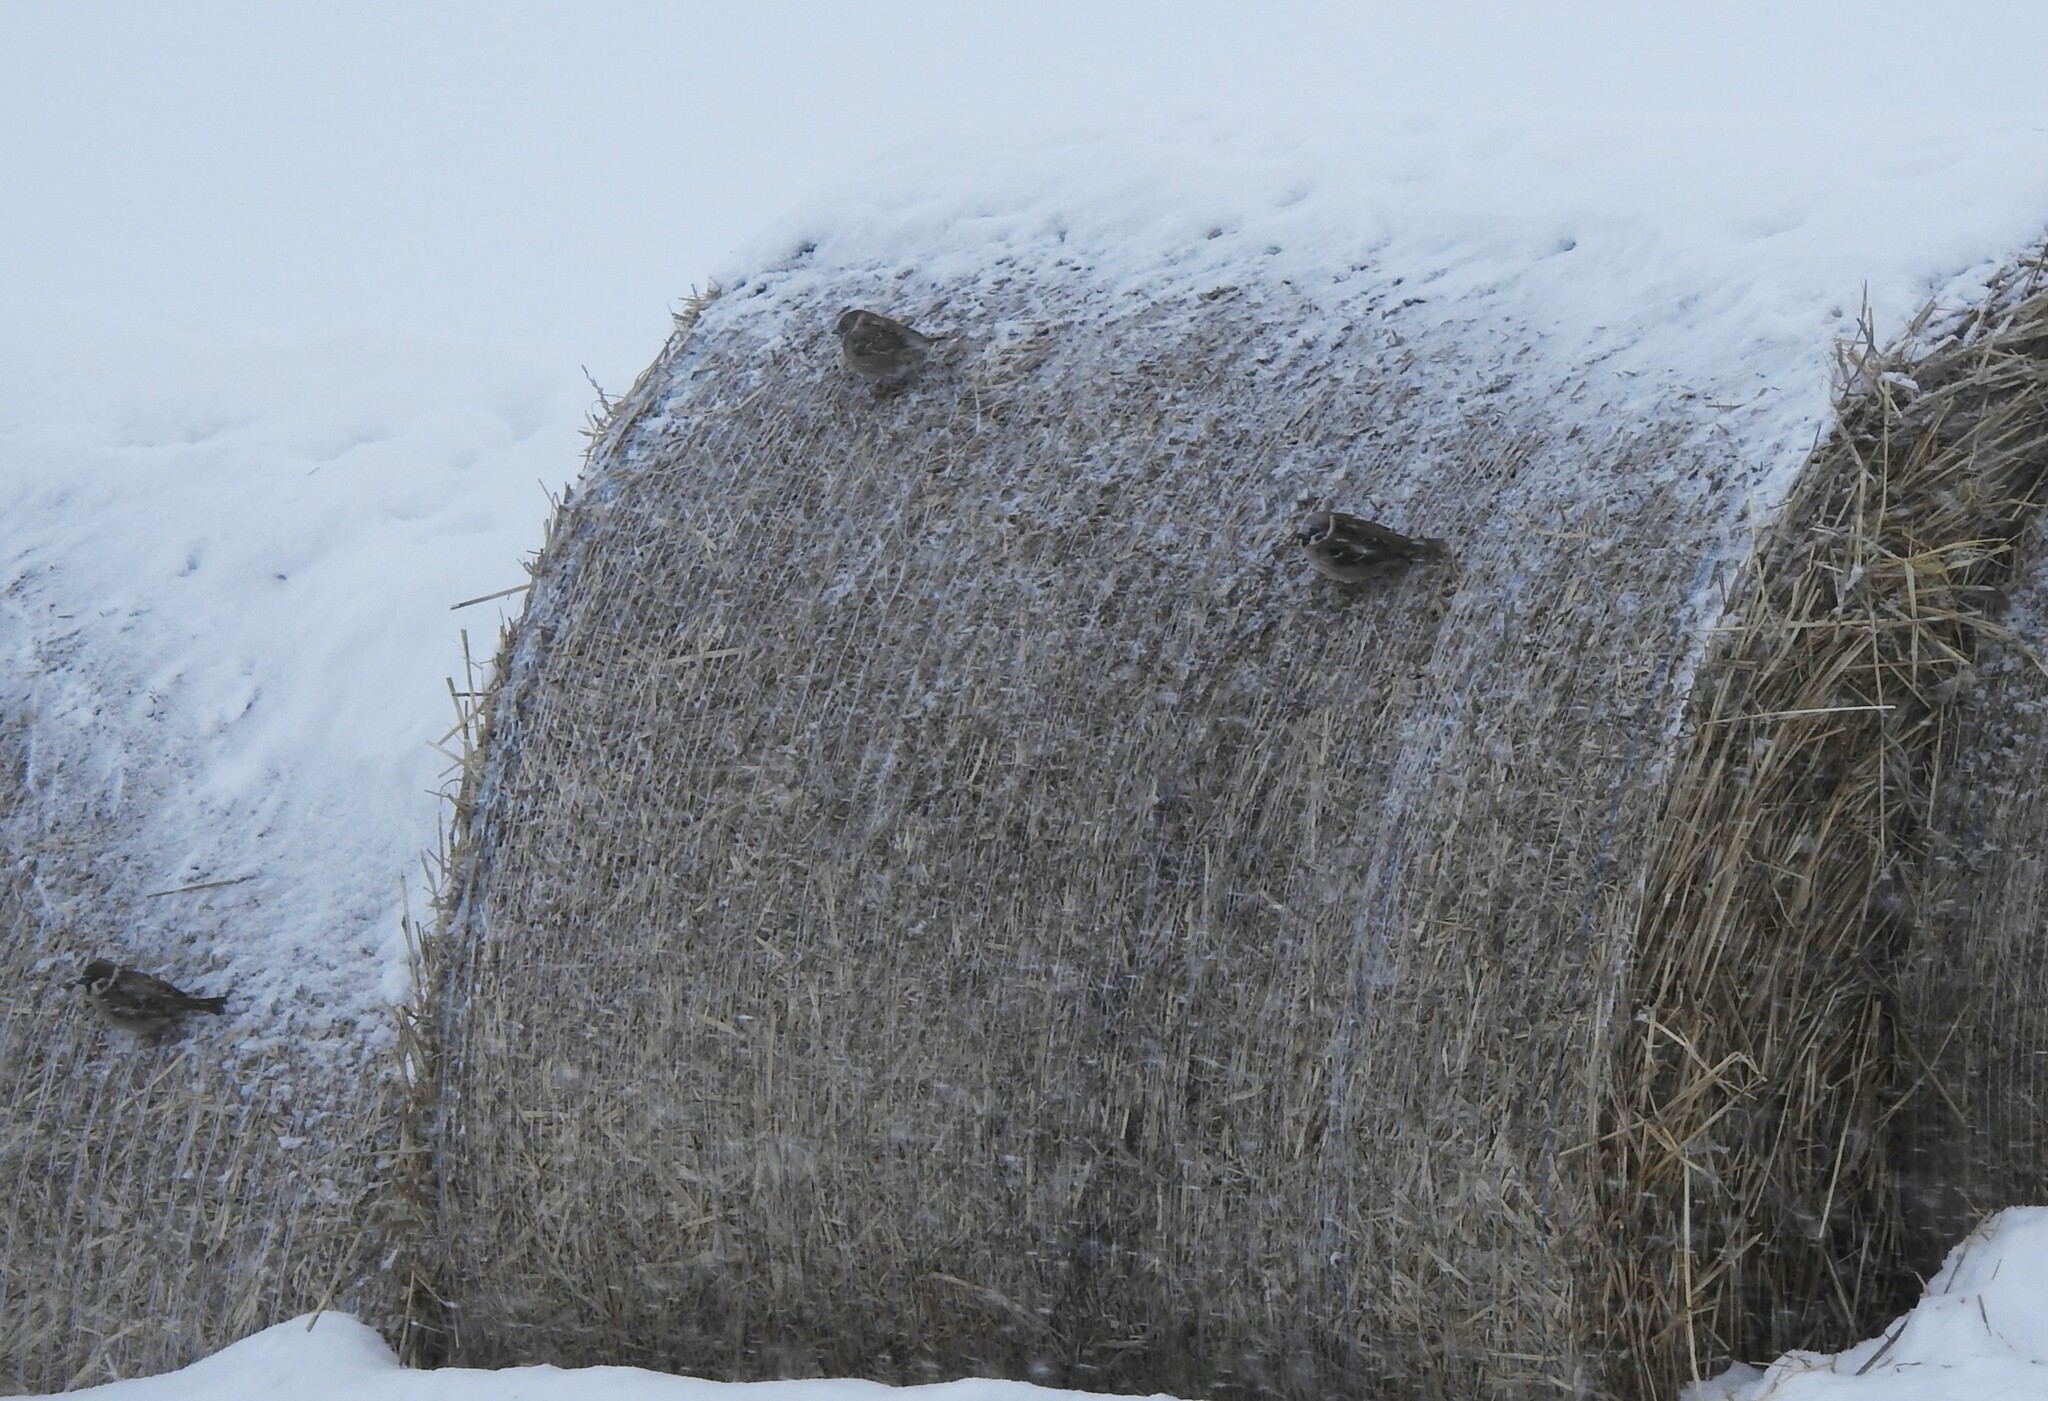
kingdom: Animalia
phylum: Chordata
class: Aves
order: Passeriformes
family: Passeridae
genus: Passer
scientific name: Passer montanus
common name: Eurasian tree sparrow
